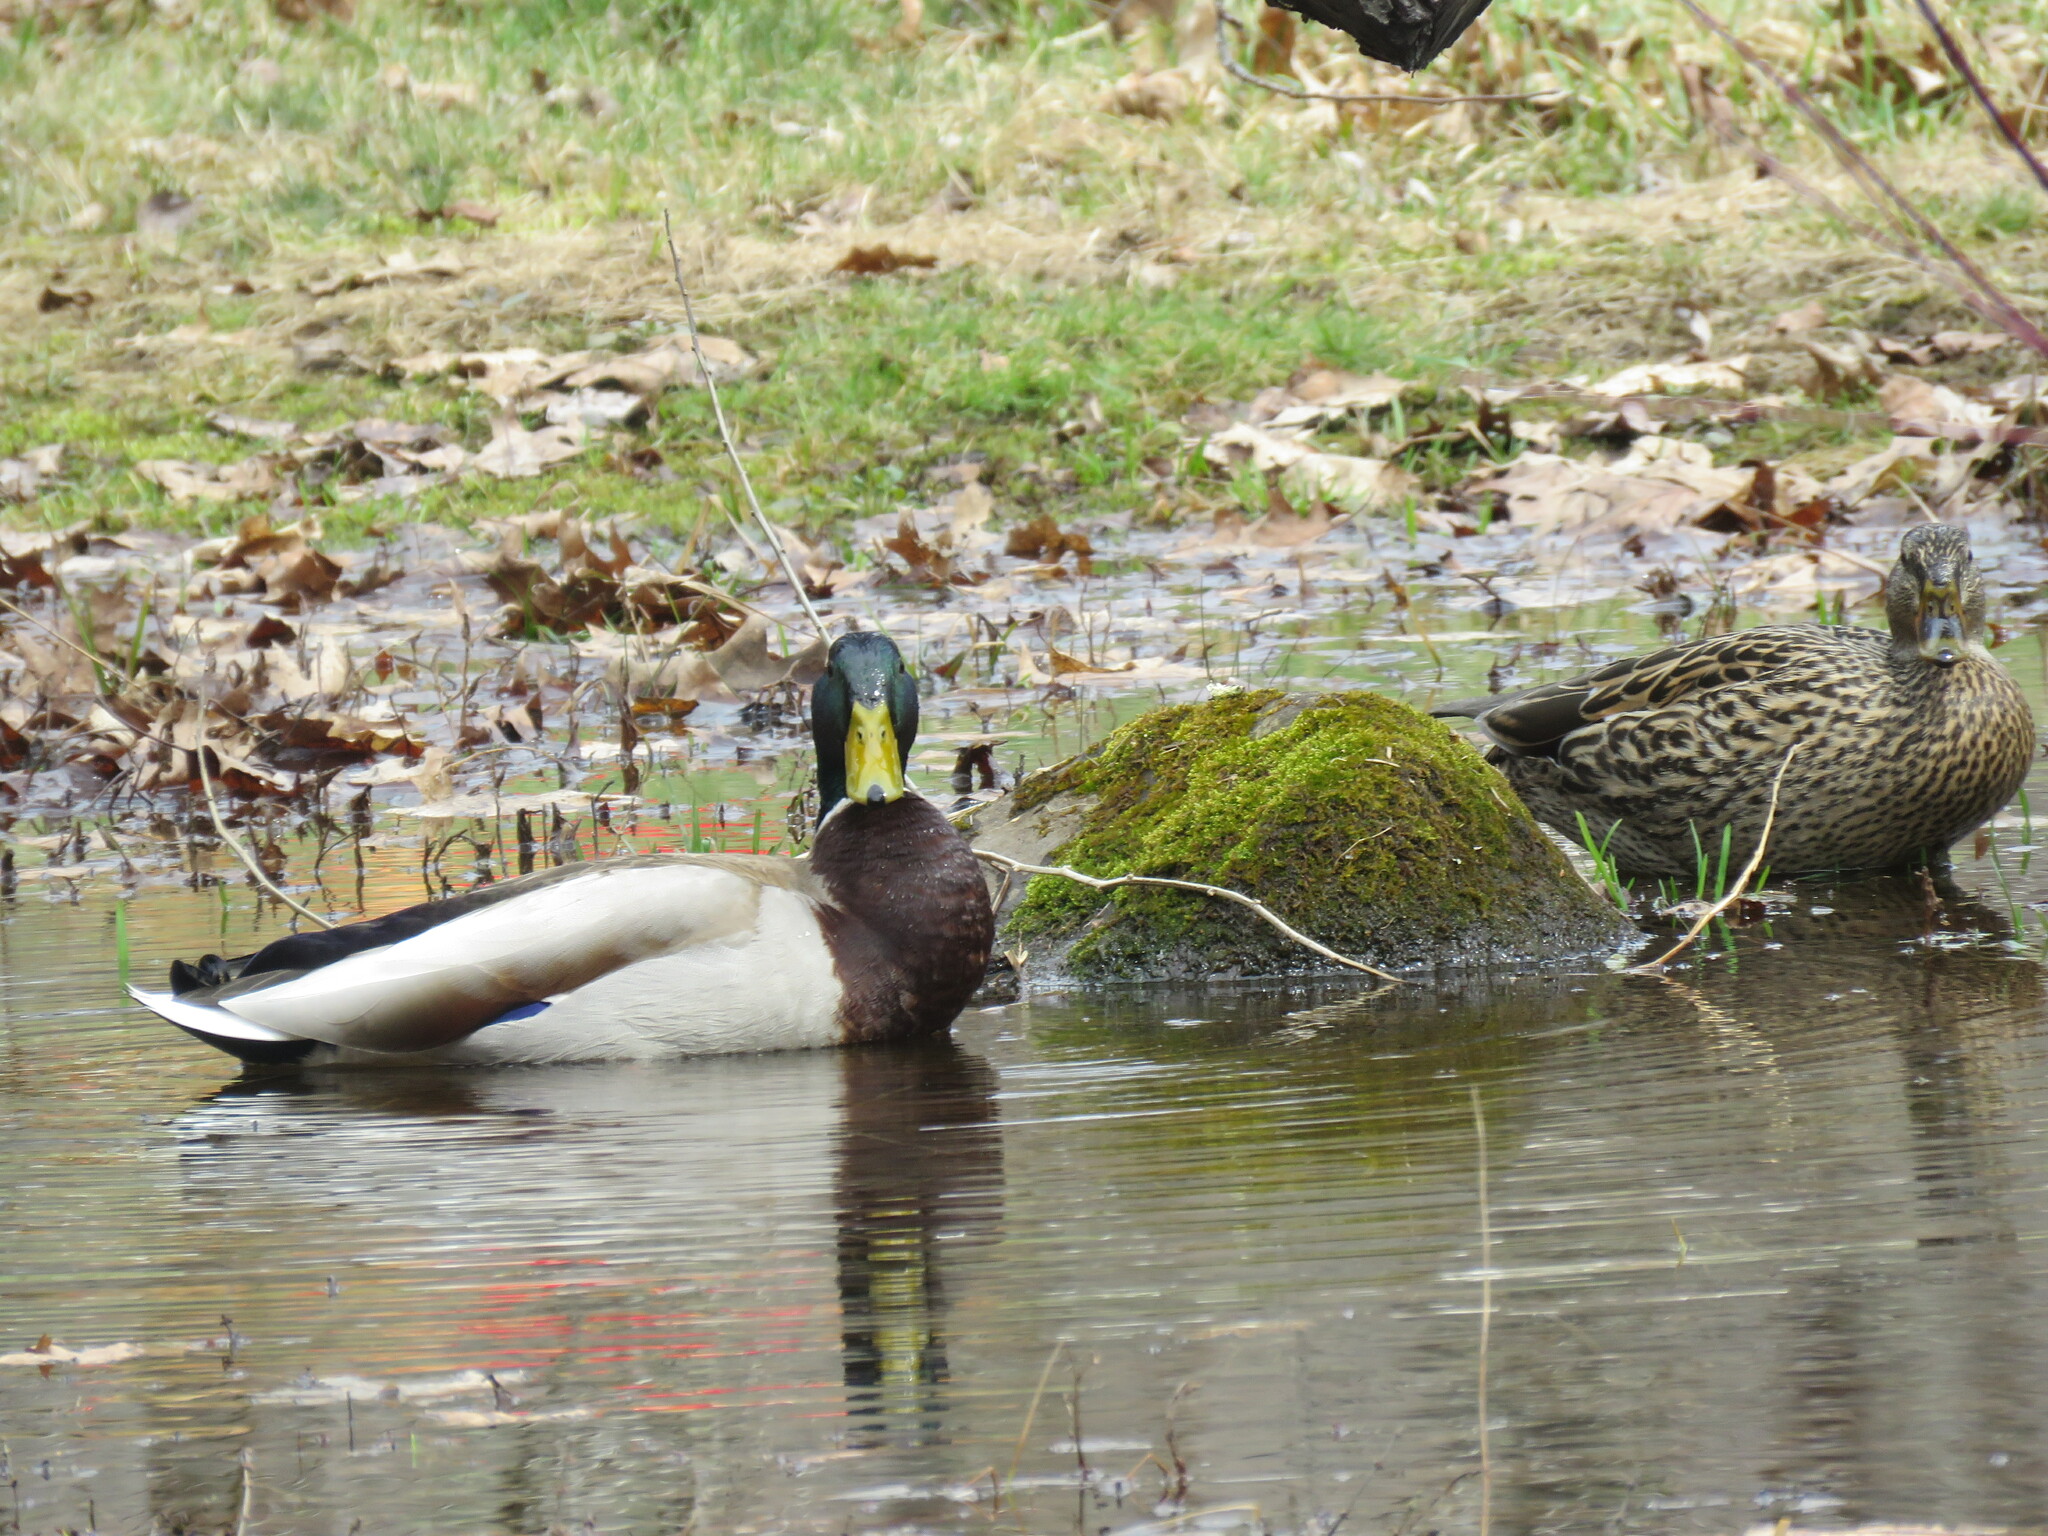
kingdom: Animalia
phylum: Chordata
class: Aves
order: Anseriformes
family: Anatidae
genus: Anas
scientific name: Anas platyrhynchos
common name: Mallard
